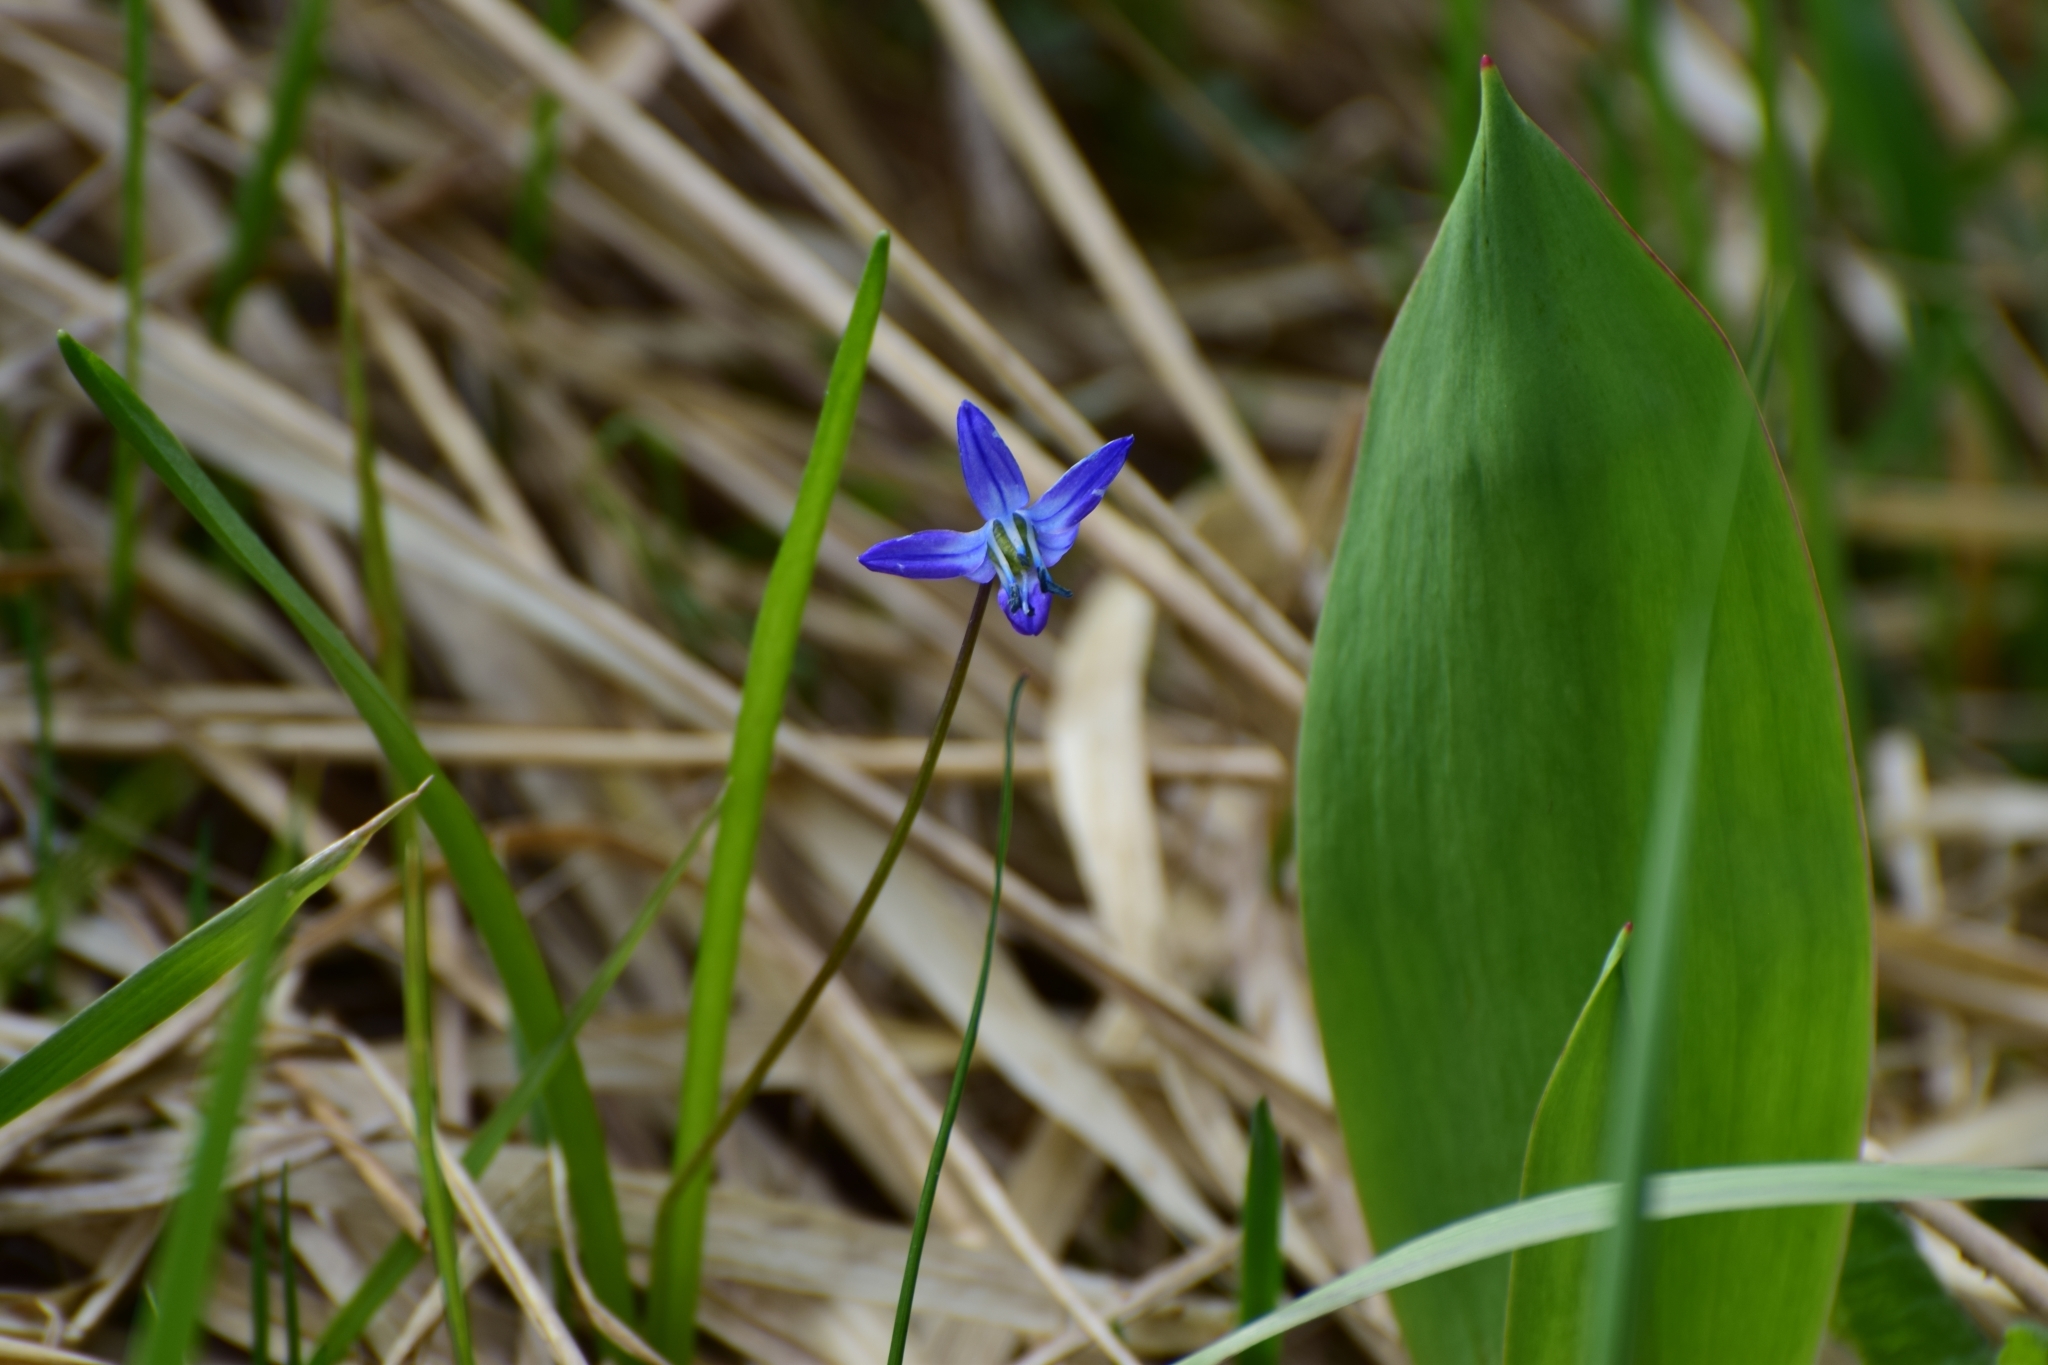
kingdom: Plantae
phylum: Tracheophyta
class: Liliopsida
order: Asparagales
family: Asparagaceae
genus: Scilla
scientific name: Scilla siberica
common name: Siberian squill
